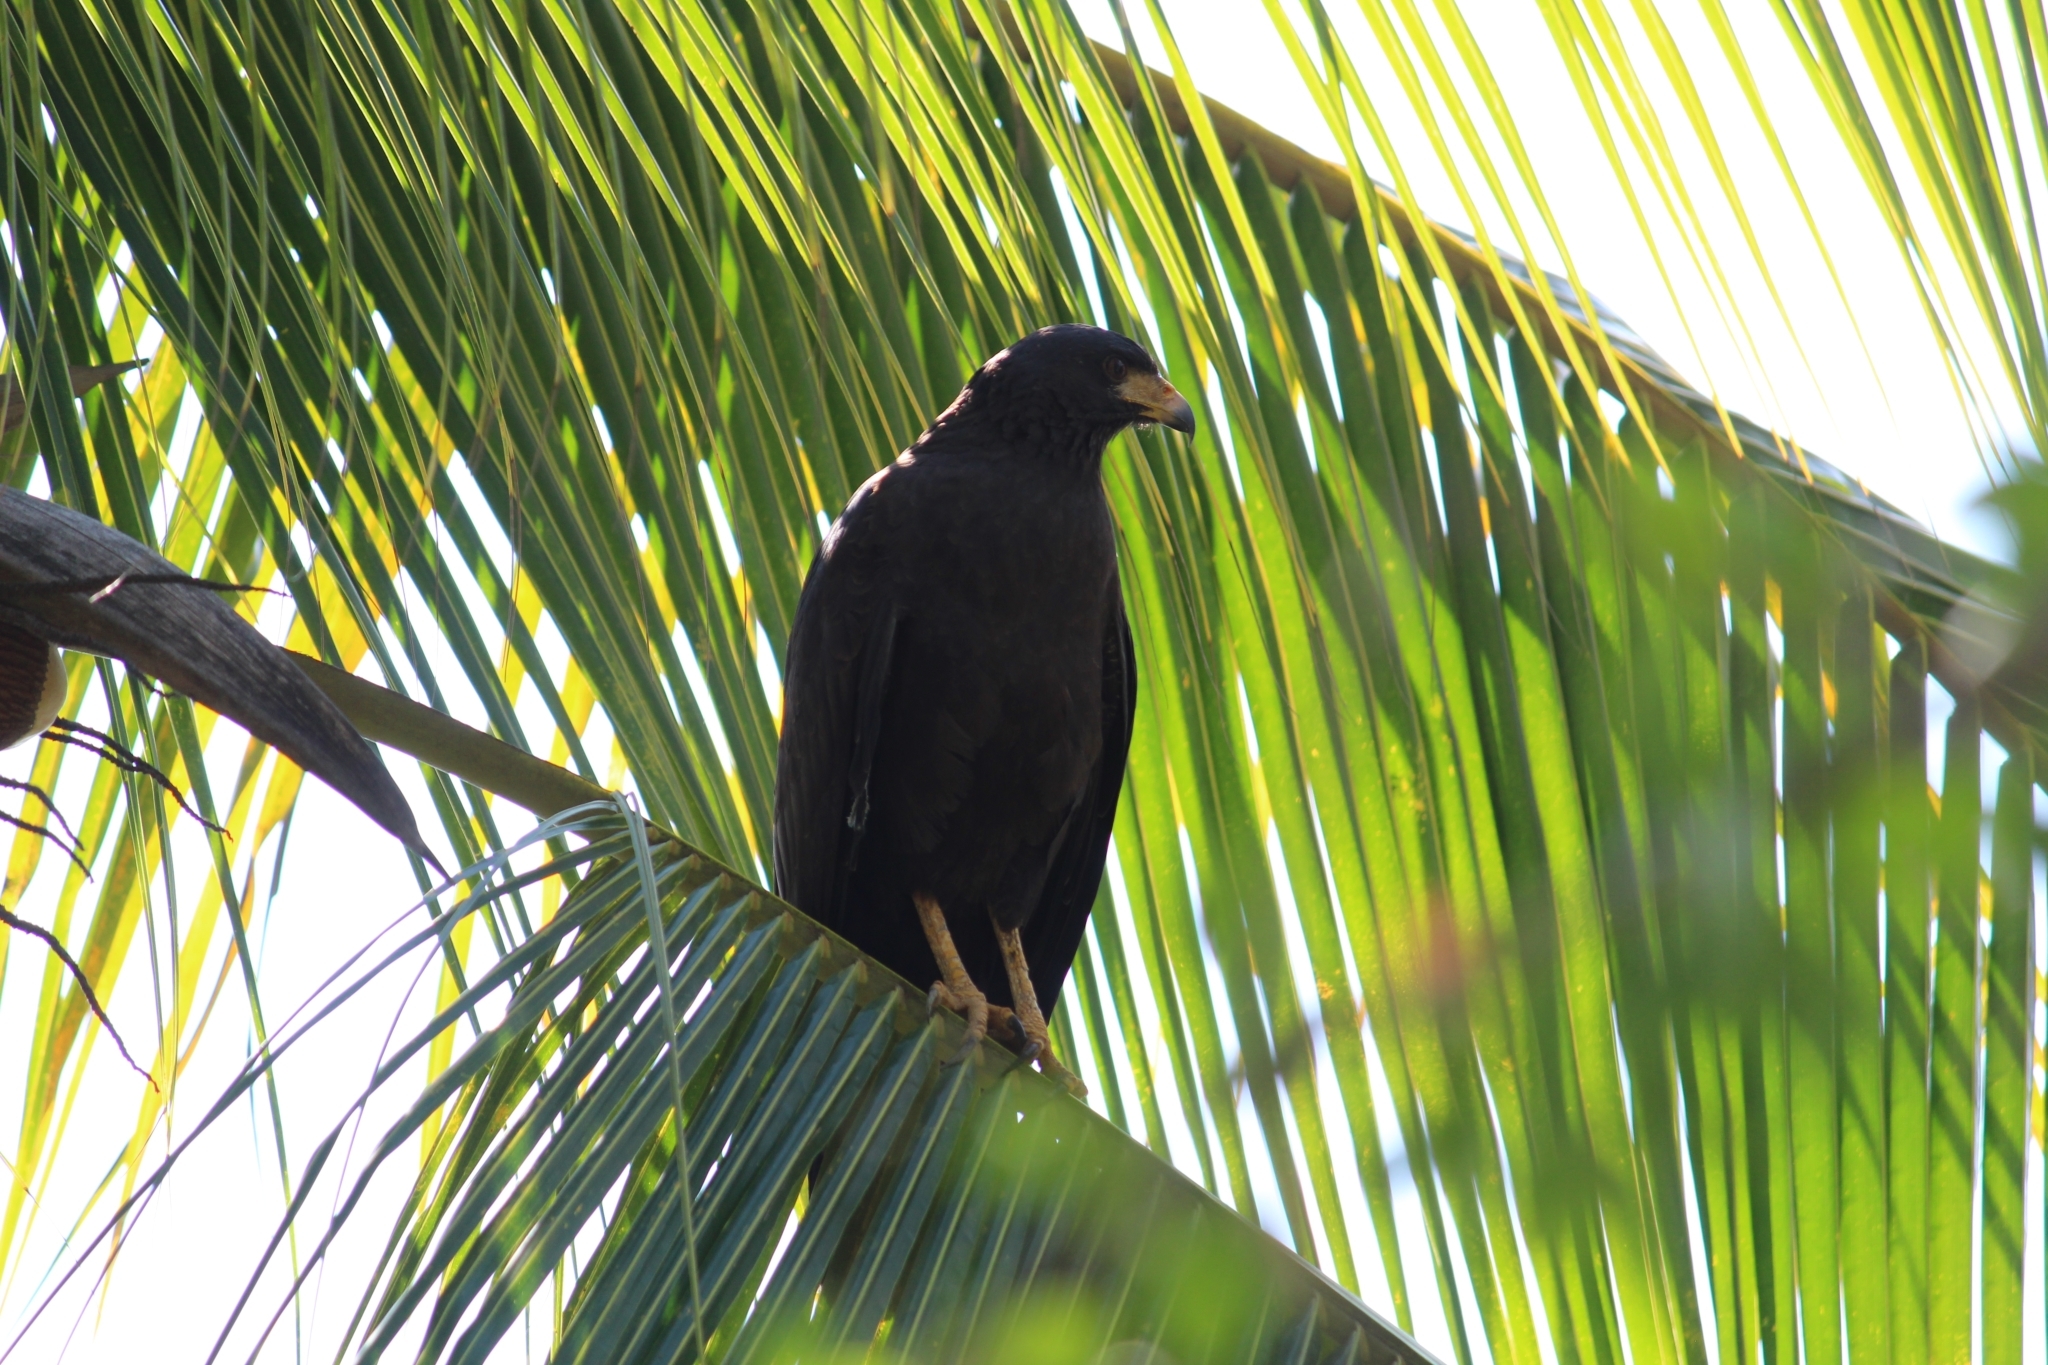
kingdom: Animalia
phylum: Chordata
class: Aves
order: Accipitriformes
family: Accipitridae
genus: Buteogallus
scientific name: Buteogallus anthracinus
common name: Common black hawk
